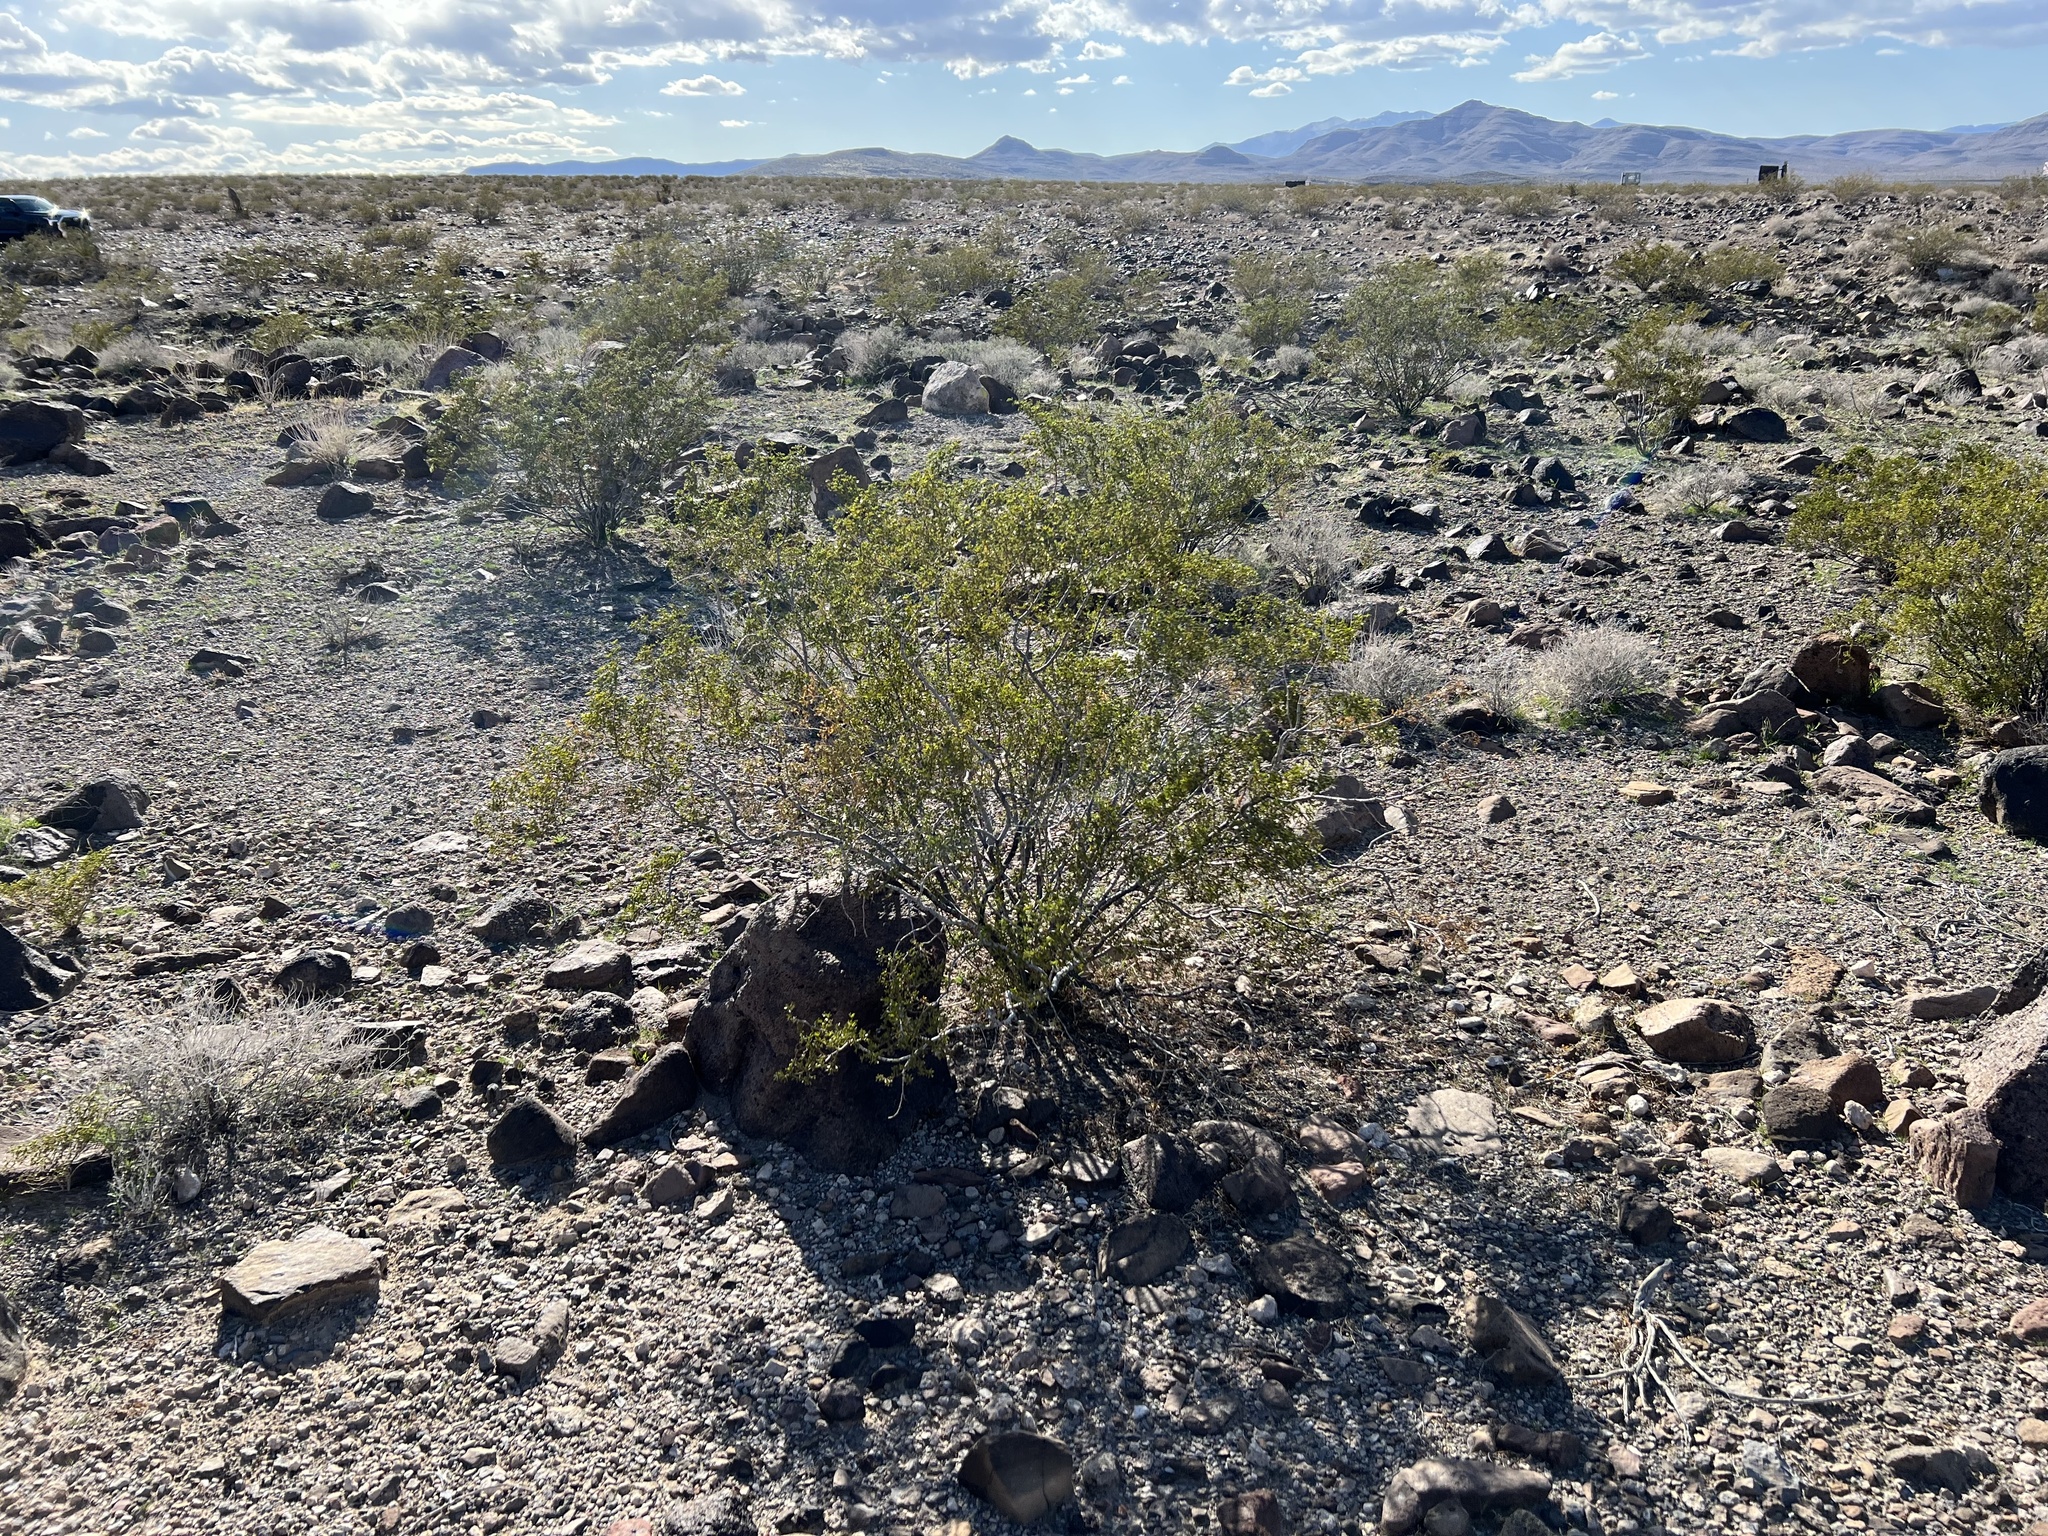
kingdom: Plantae
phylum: Tracheophyta
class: Magnoliopsida
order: Zygophyllales
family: Zygophyllaceae
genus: Larrea
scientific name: Larrea tridentata
